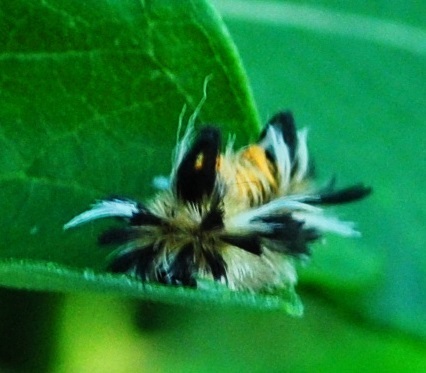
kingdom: Animalia
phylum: Arthropoda
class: Insecta
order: Lepidoptera
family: Erebidae
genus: Euchaetes
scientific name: Euchaetes egle
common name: Milkweed tussock moth
